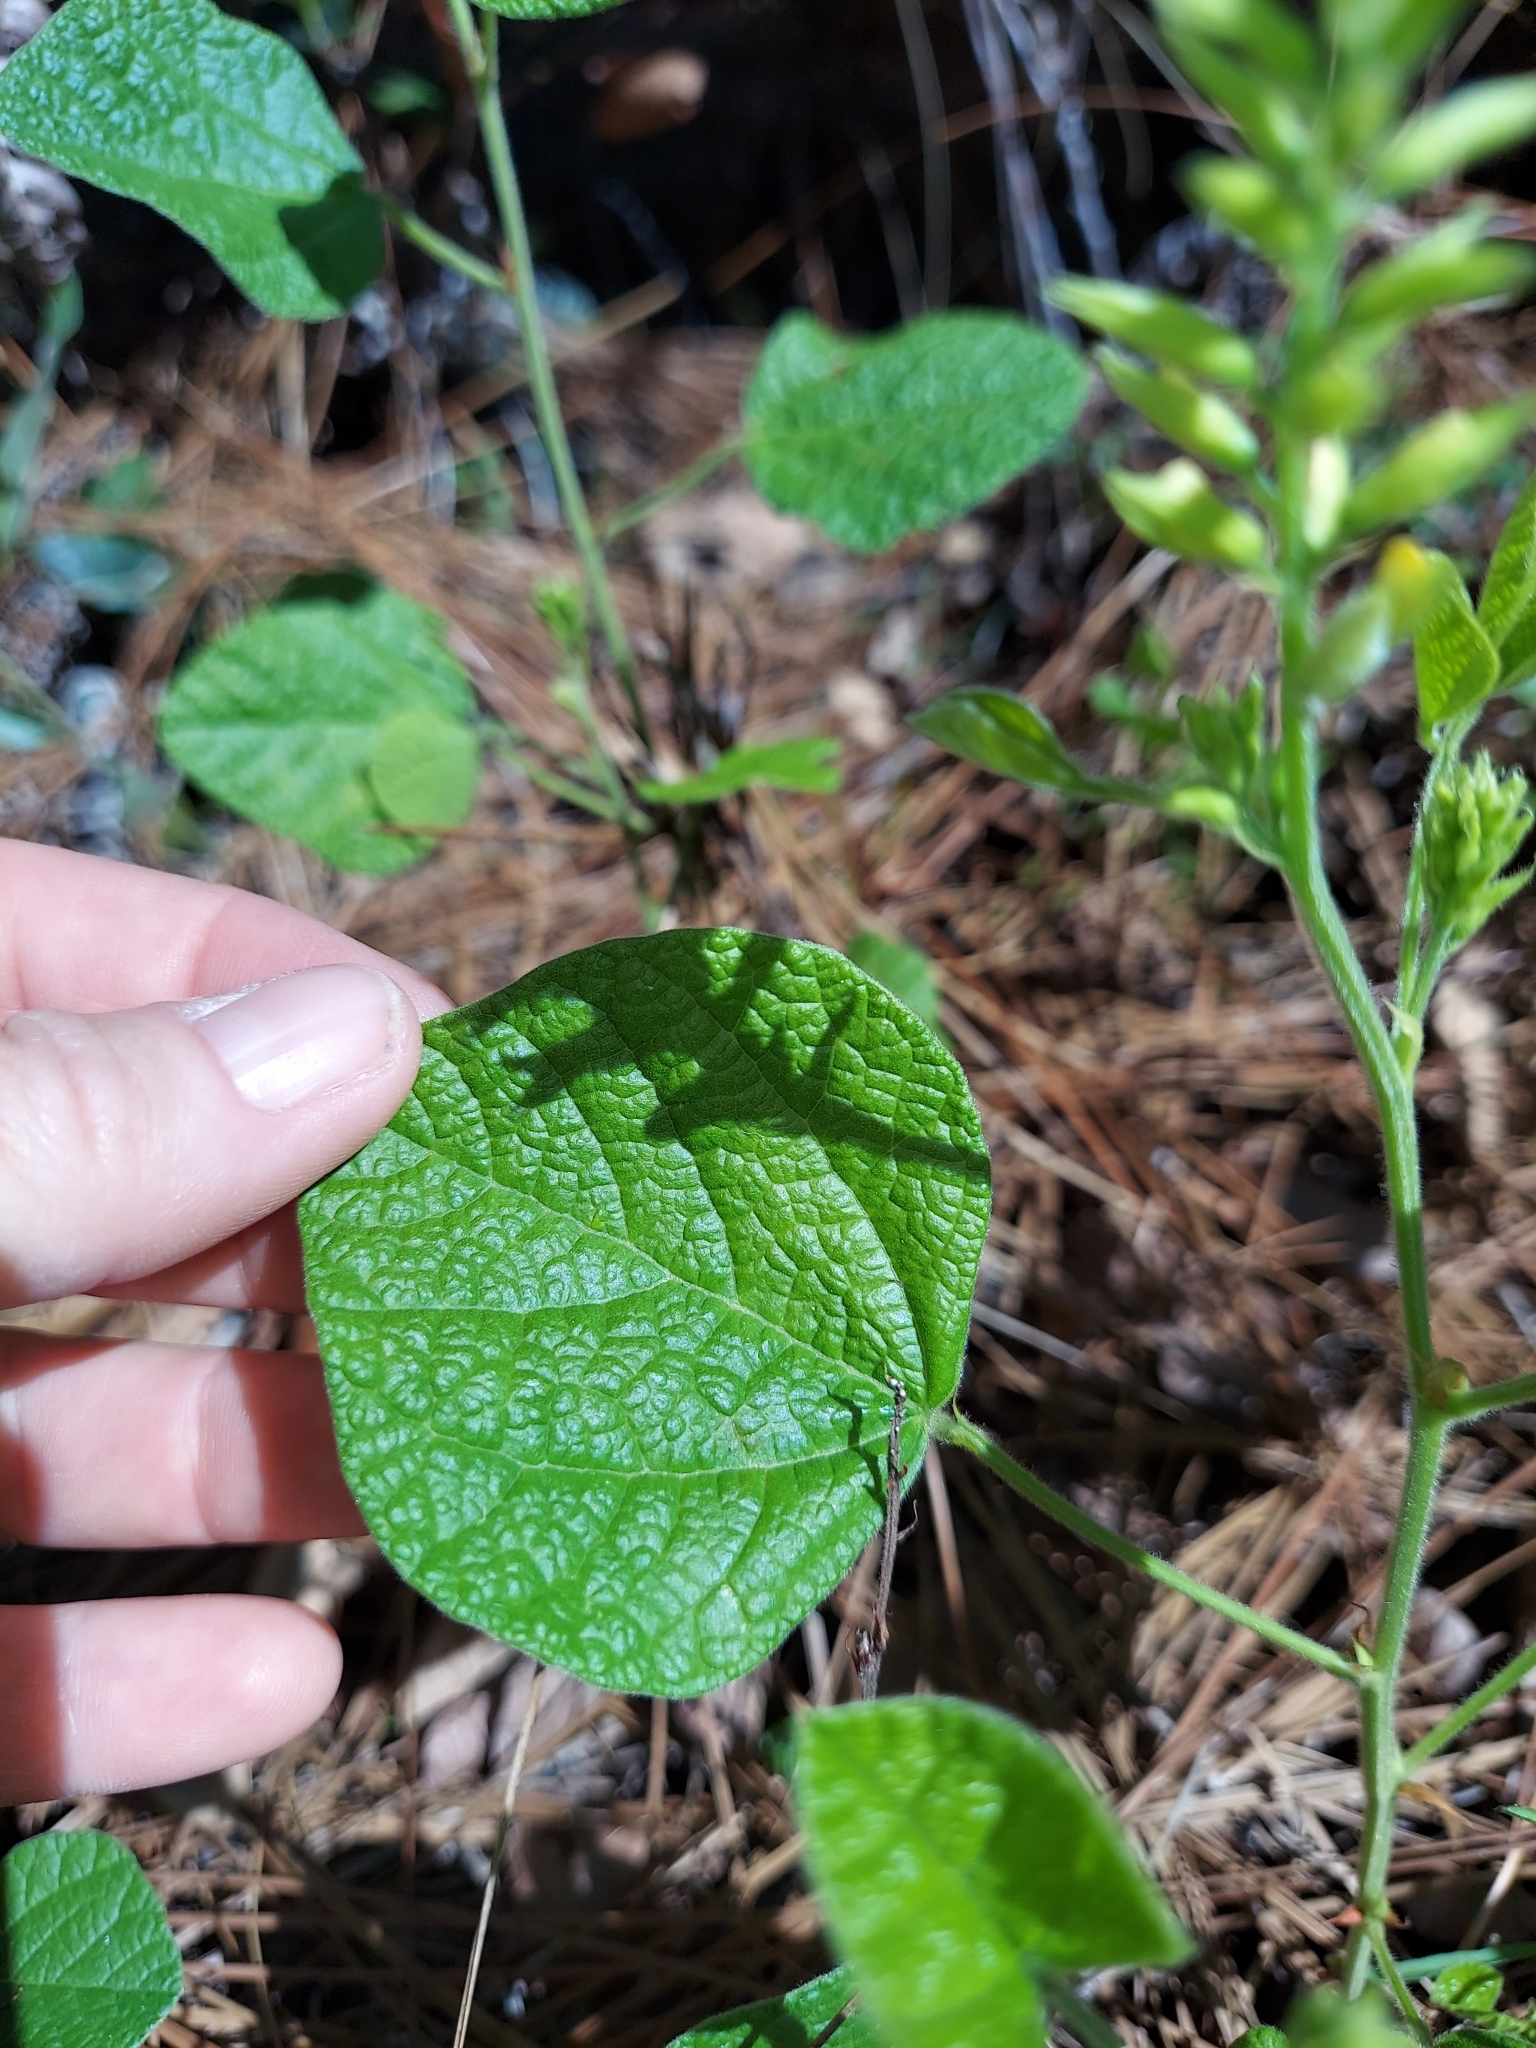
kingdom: Plantae
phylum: Tracheophyta
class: Magnoliopsida
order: Fabales
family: Fabaceae
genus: Rhynchosia
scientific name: Rhynchosia michauxii
